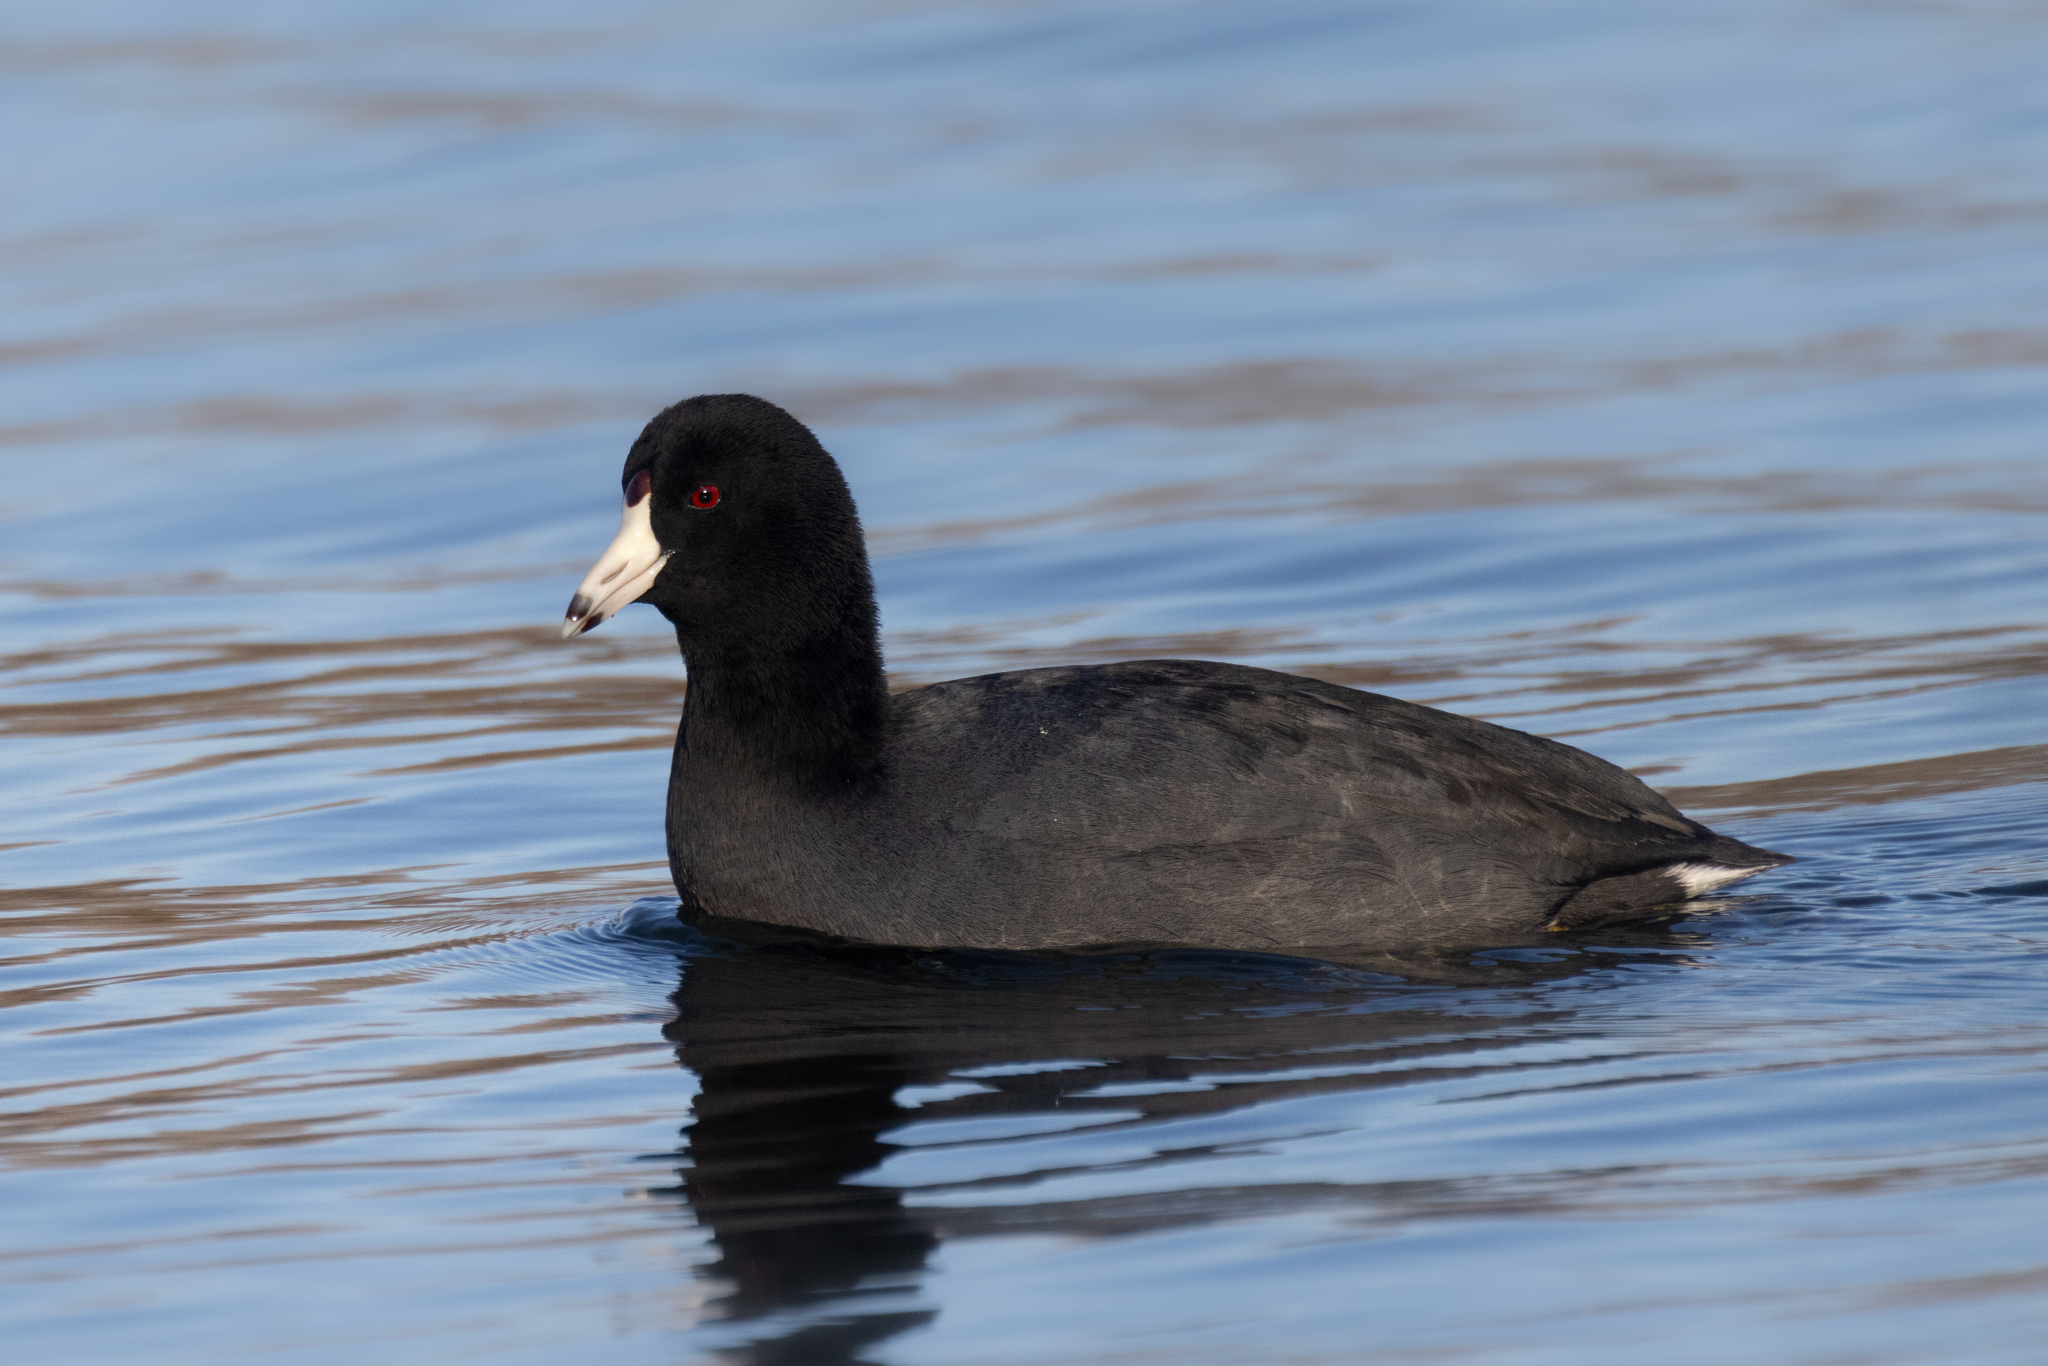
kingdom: Animalia
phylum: Chordata
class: Aves
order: Gruiformes
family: Rallidae
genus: Fulica
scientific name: Fulica americana
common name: American coot
